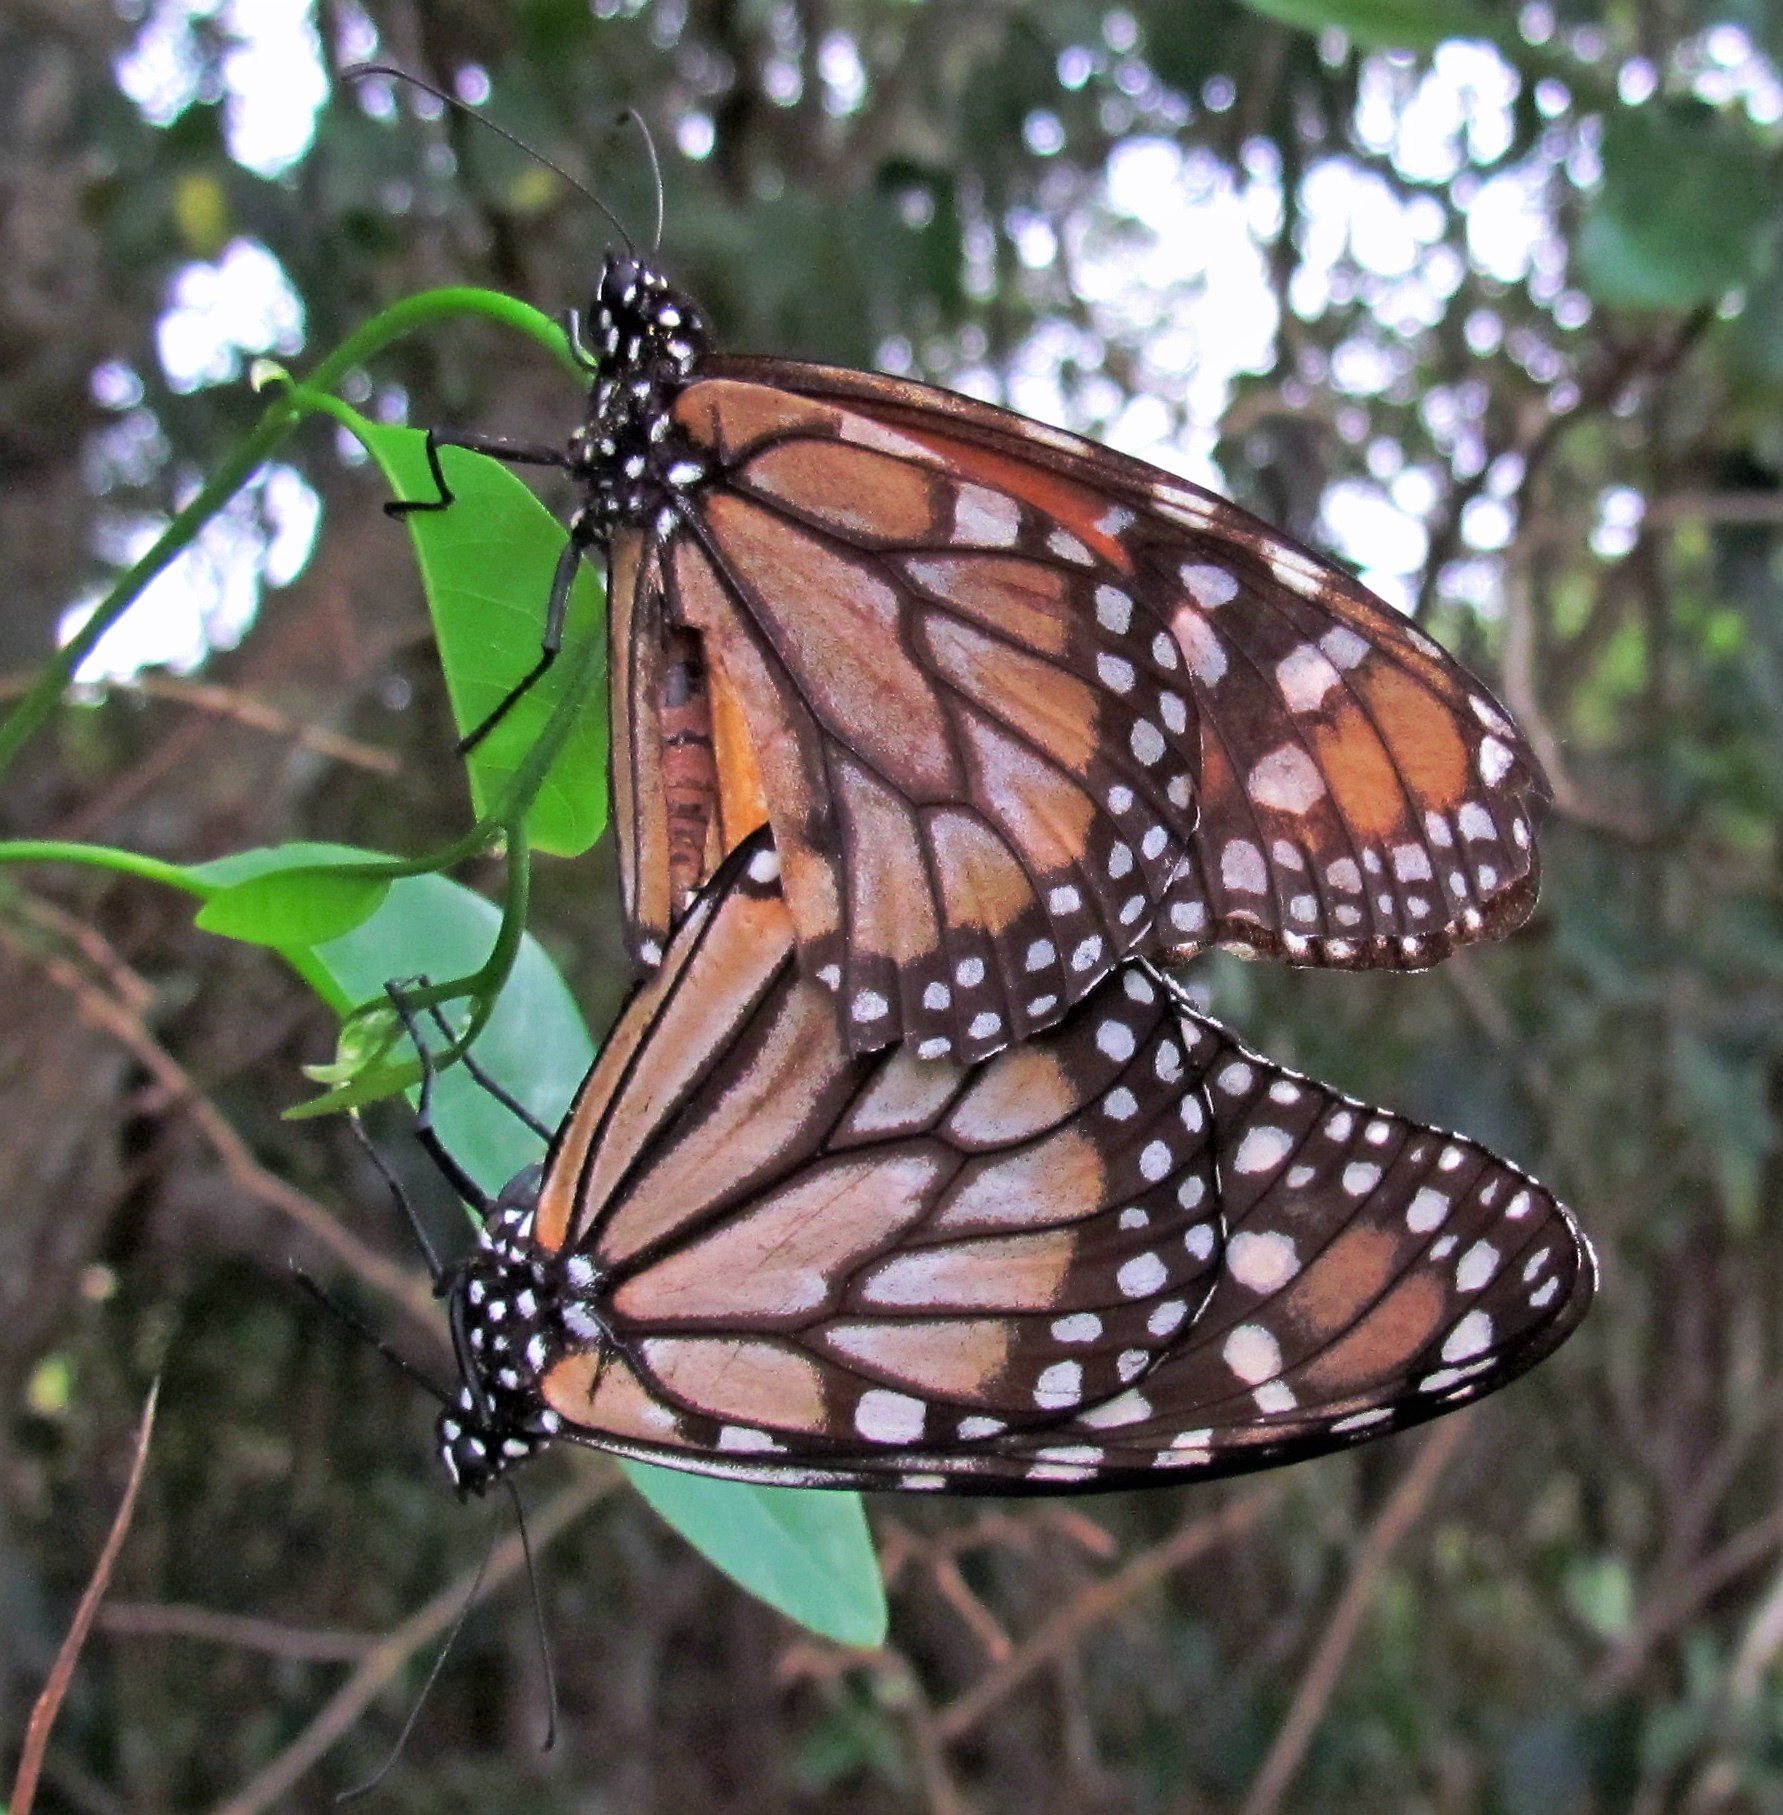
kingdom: Animalia
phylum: Arthropoda
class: Insecta
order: Lepidoptera
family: Nymphalidae
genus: Danaus
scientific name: Danaus erippus
